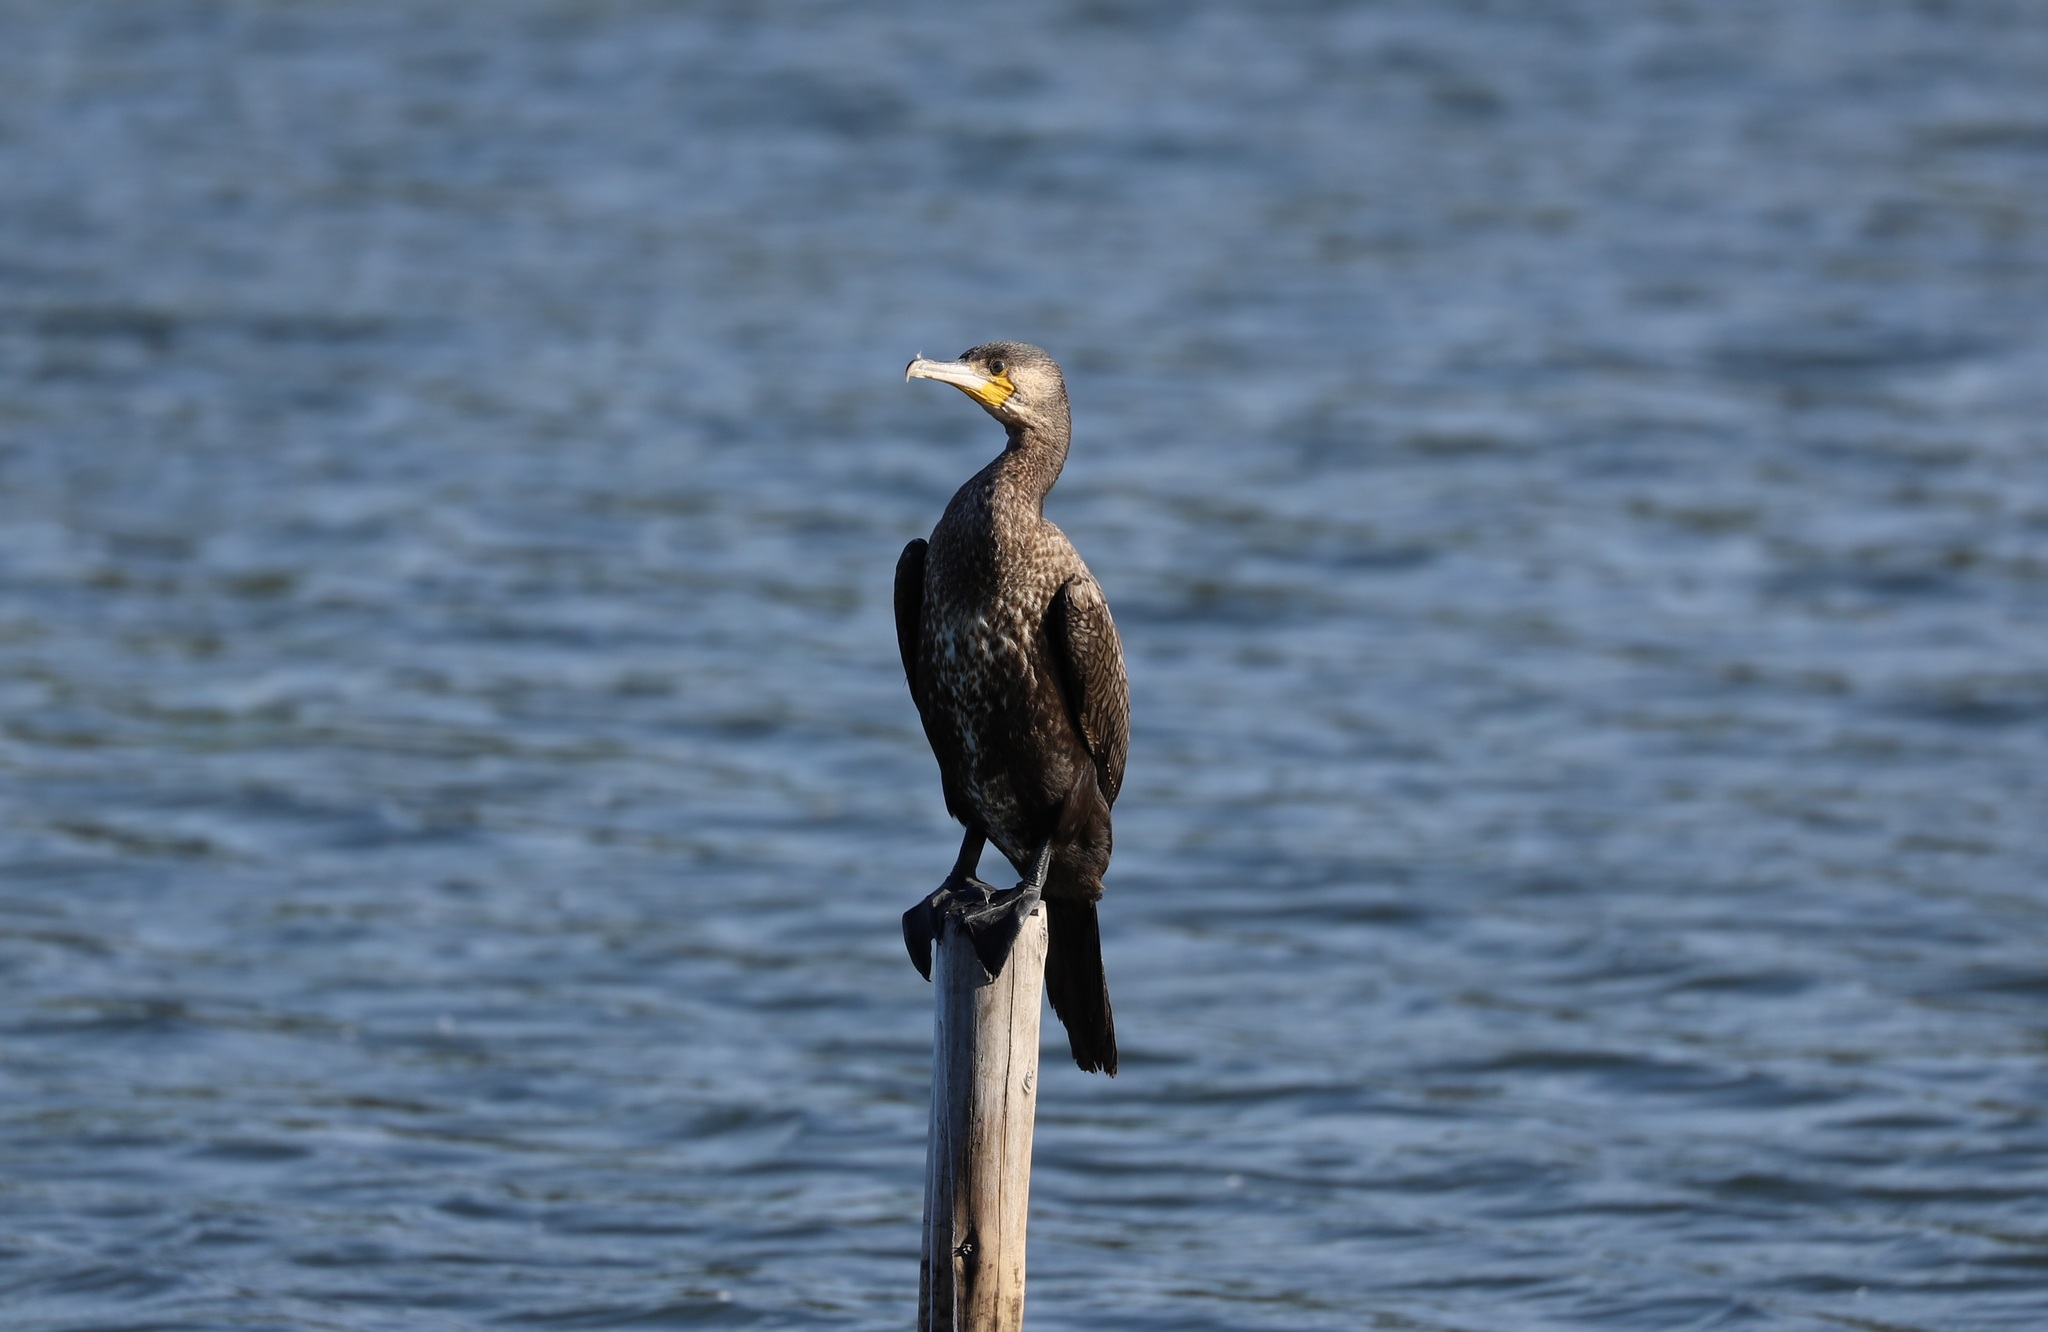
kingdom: Animalia
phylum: Chordata
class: Aves
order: Suliformes
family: Phalacrocoracidae
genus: Phalacrocorax
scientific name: Phalacrocorax carbo
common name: Great cormorant
